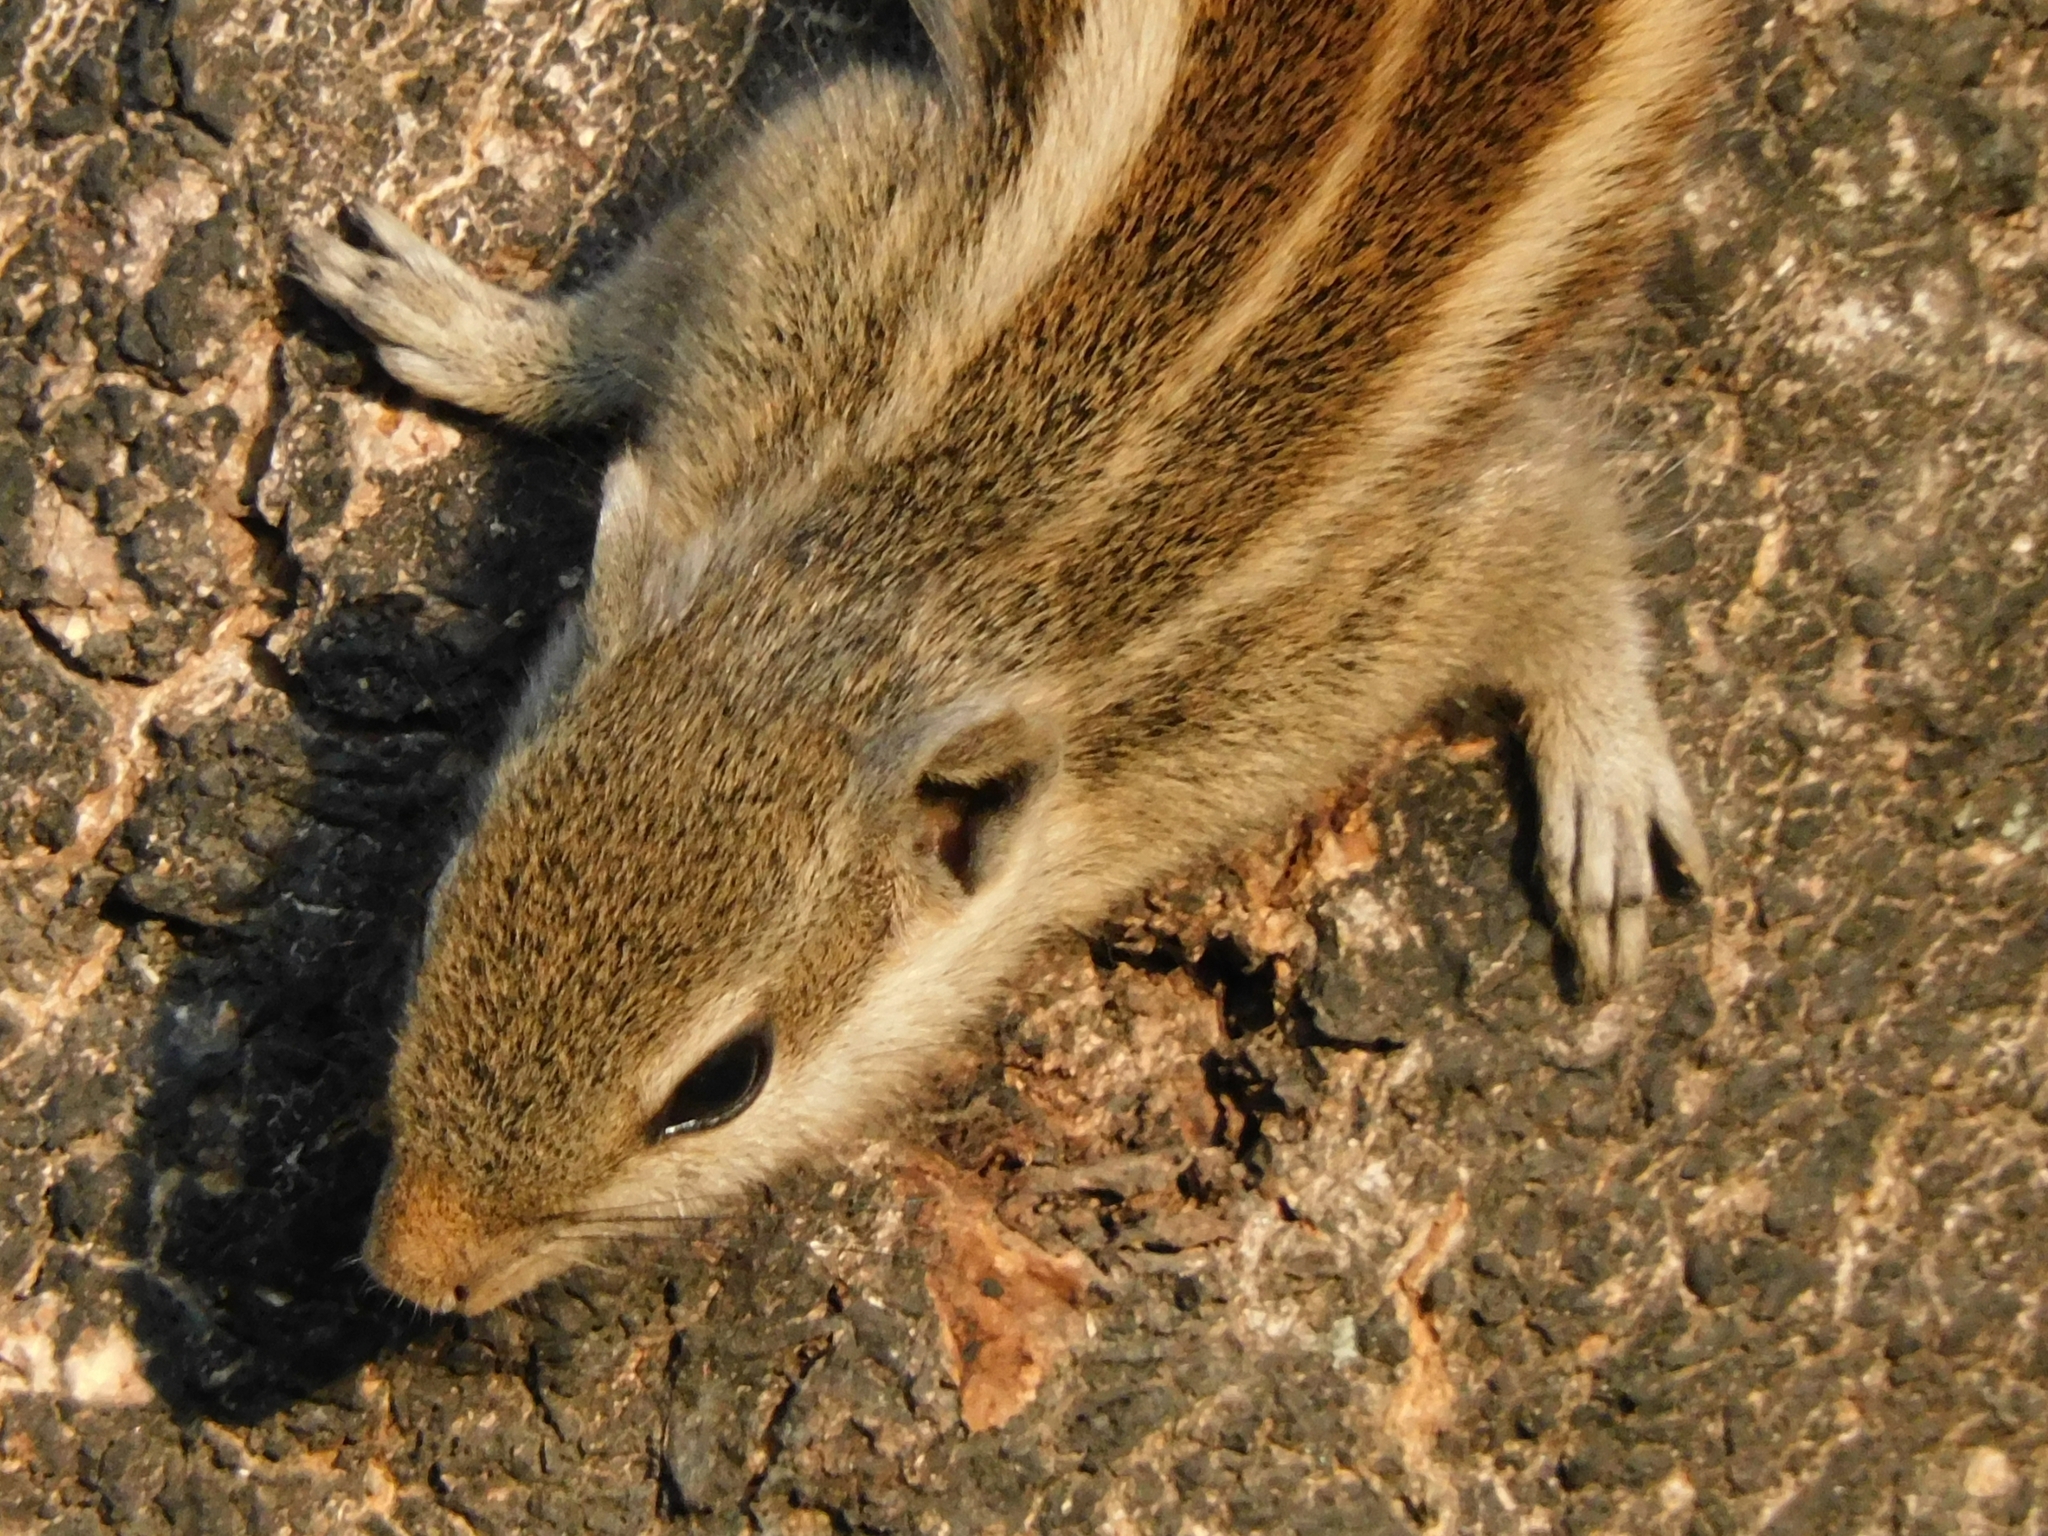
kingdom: Animalia
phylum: Chordata
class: Mammalia
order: Rodentia
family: Sciuridae
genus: Funambulus
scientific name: Funambulus pennantii
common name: Northern palm squirrel
